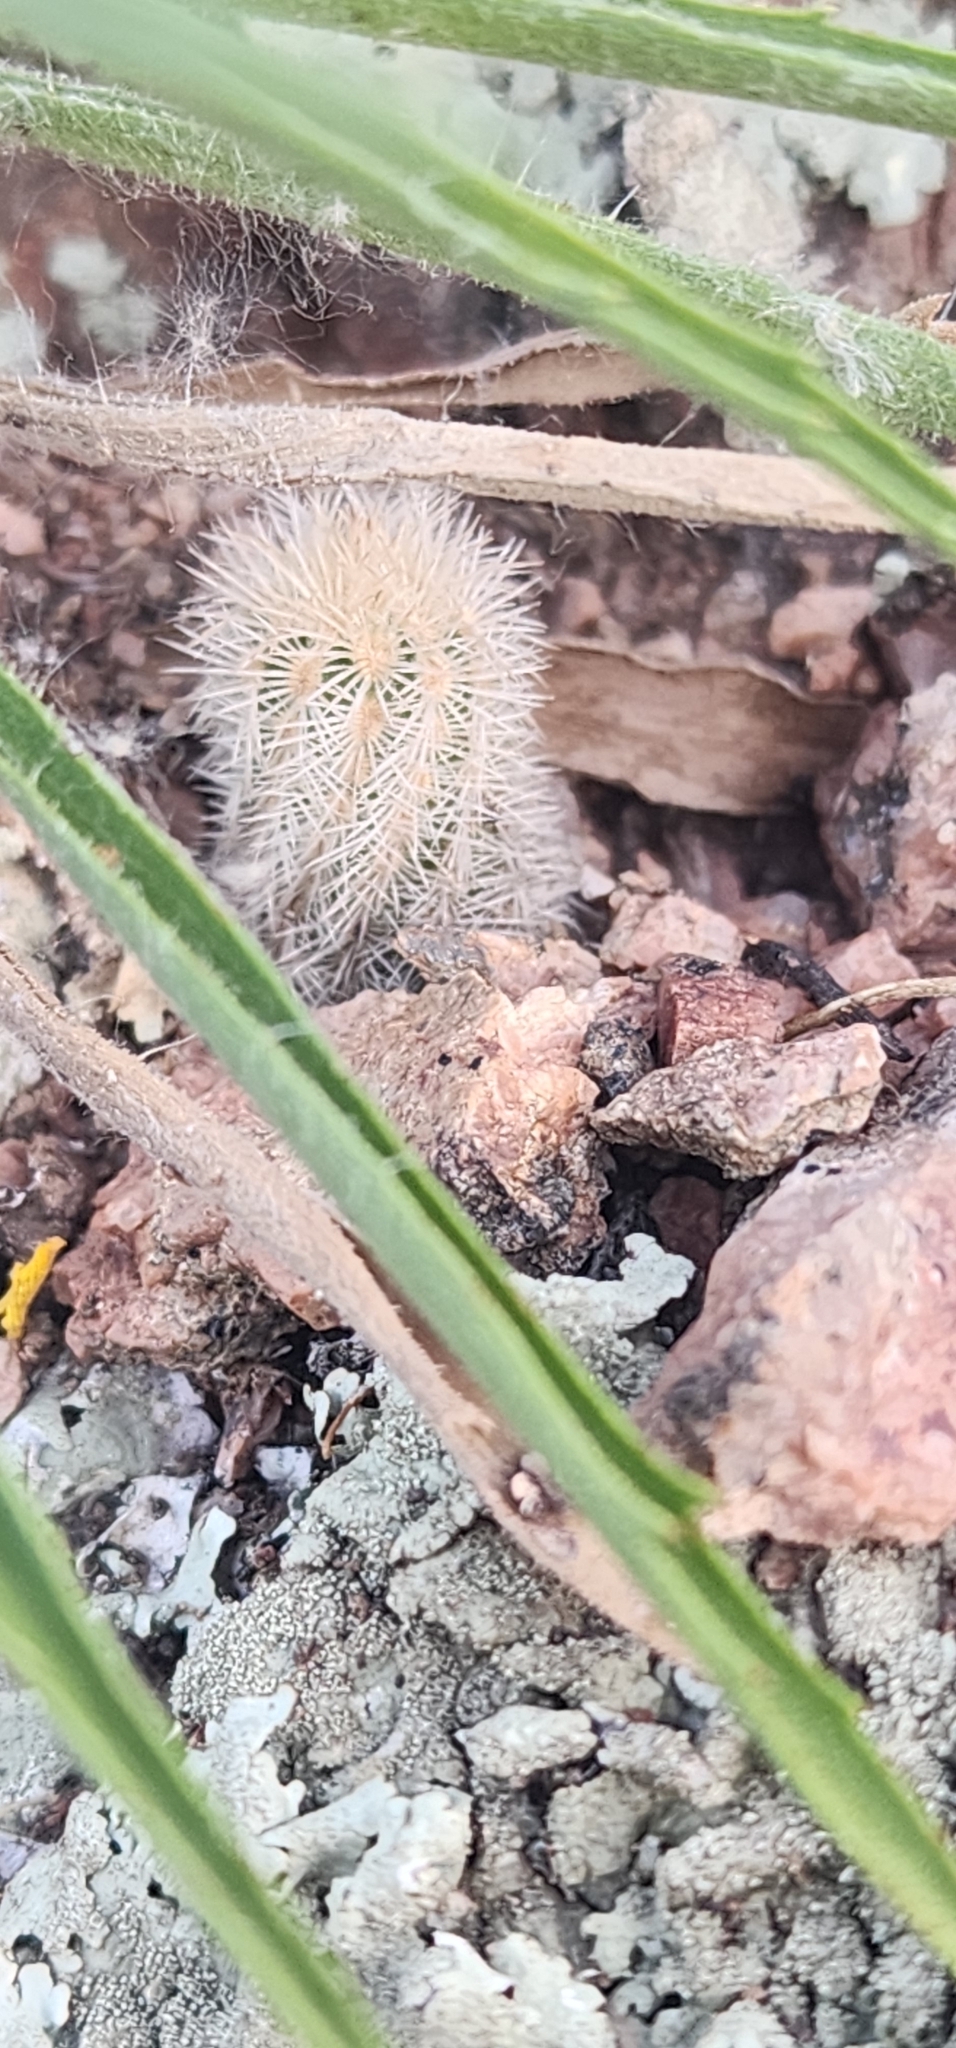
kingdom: Plantae
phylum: Tracheophyta
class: Magnoliopsida
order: Caryophyllales
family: Cactaceae
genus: Echinocereus
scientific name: Echinocereus reichenbachii
